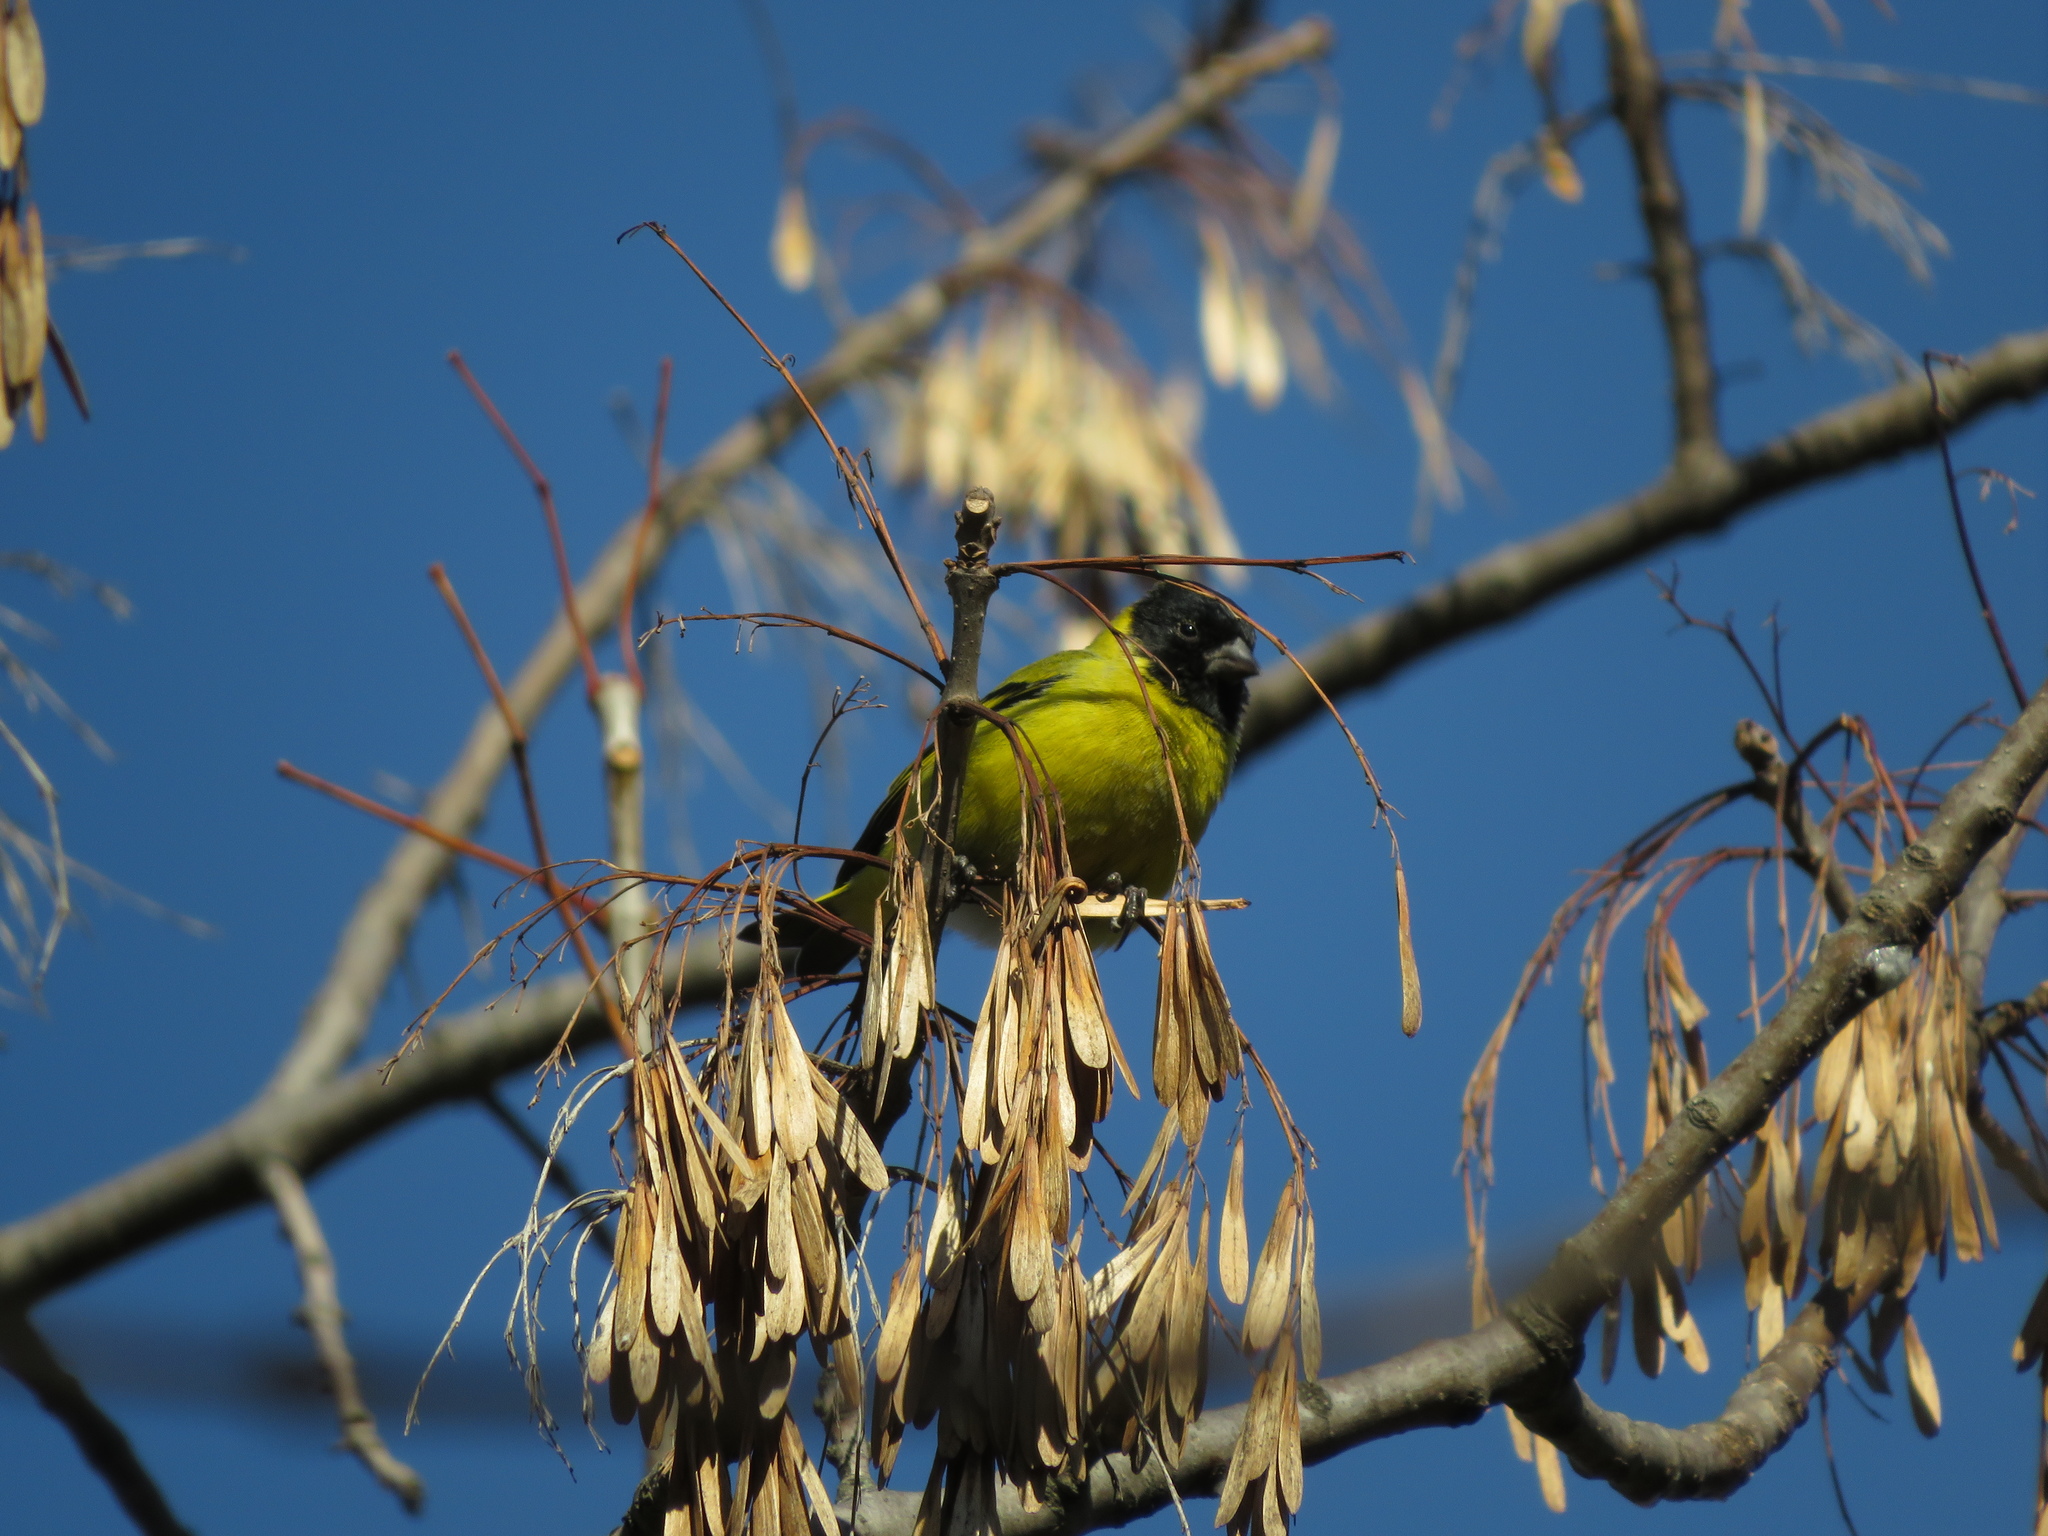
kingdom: Animalia
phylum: Chordata
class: Aves
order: Passeriformes
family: Fringillidae
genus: Spinus
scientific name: Spinus magellanicus
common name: Hooded siskin
